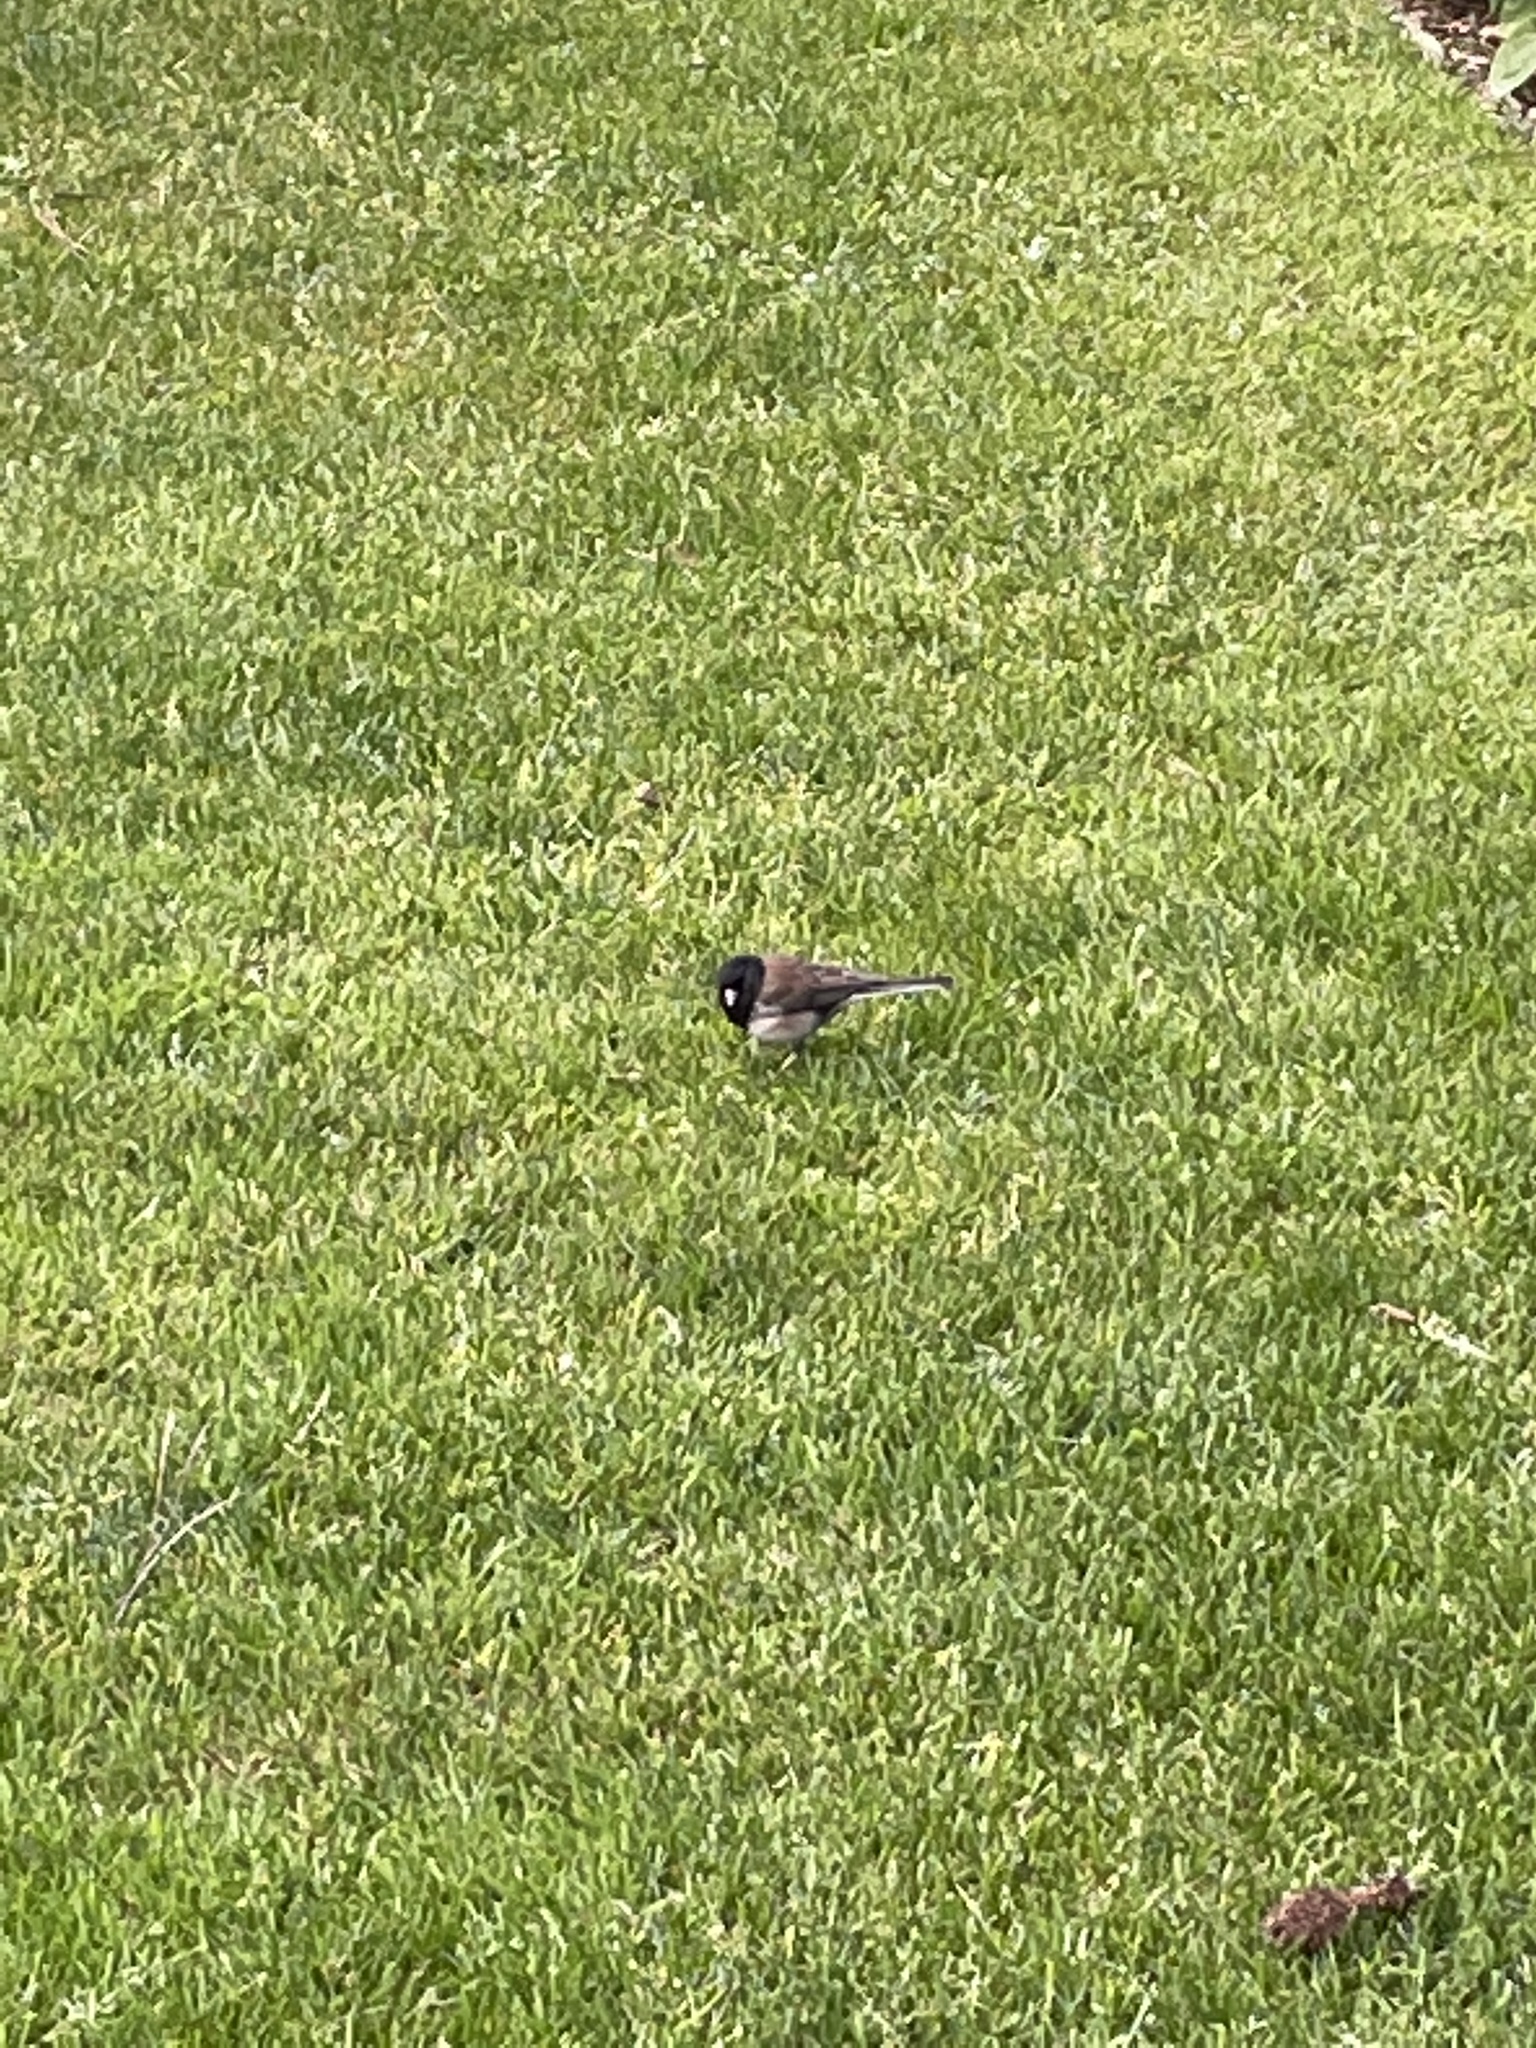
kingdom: Animalia
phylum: Chordata
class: Aves
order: Passeriformes
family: Passerellidae
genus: Junco
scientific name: Junco hyemalis
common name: Dark-eyed junco
